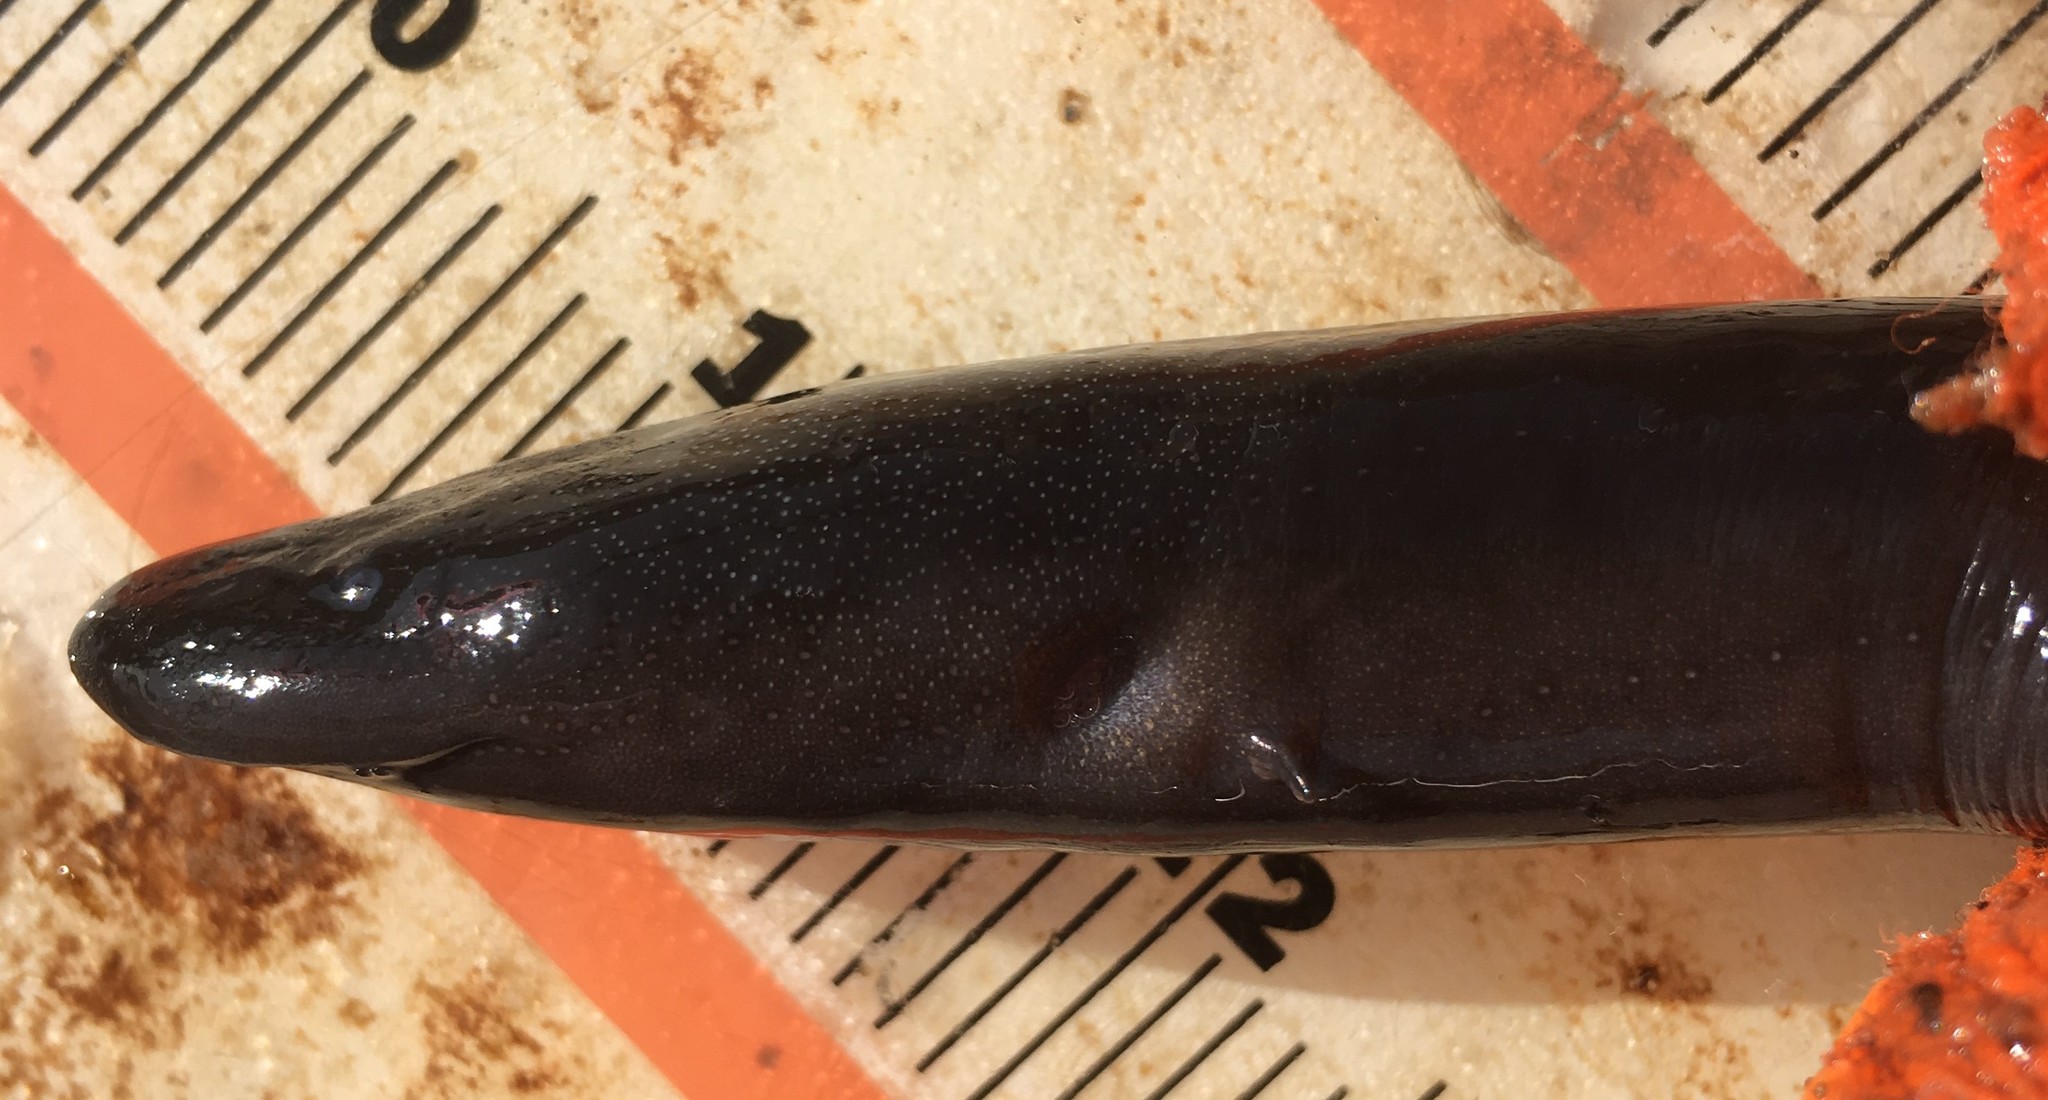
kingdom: Animalia
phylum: Chordata
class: Amphibia
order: Caudata
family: Amphiumidae
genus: Amphiuma
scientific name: Amphiuma means
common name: Two-toed amphiuma
